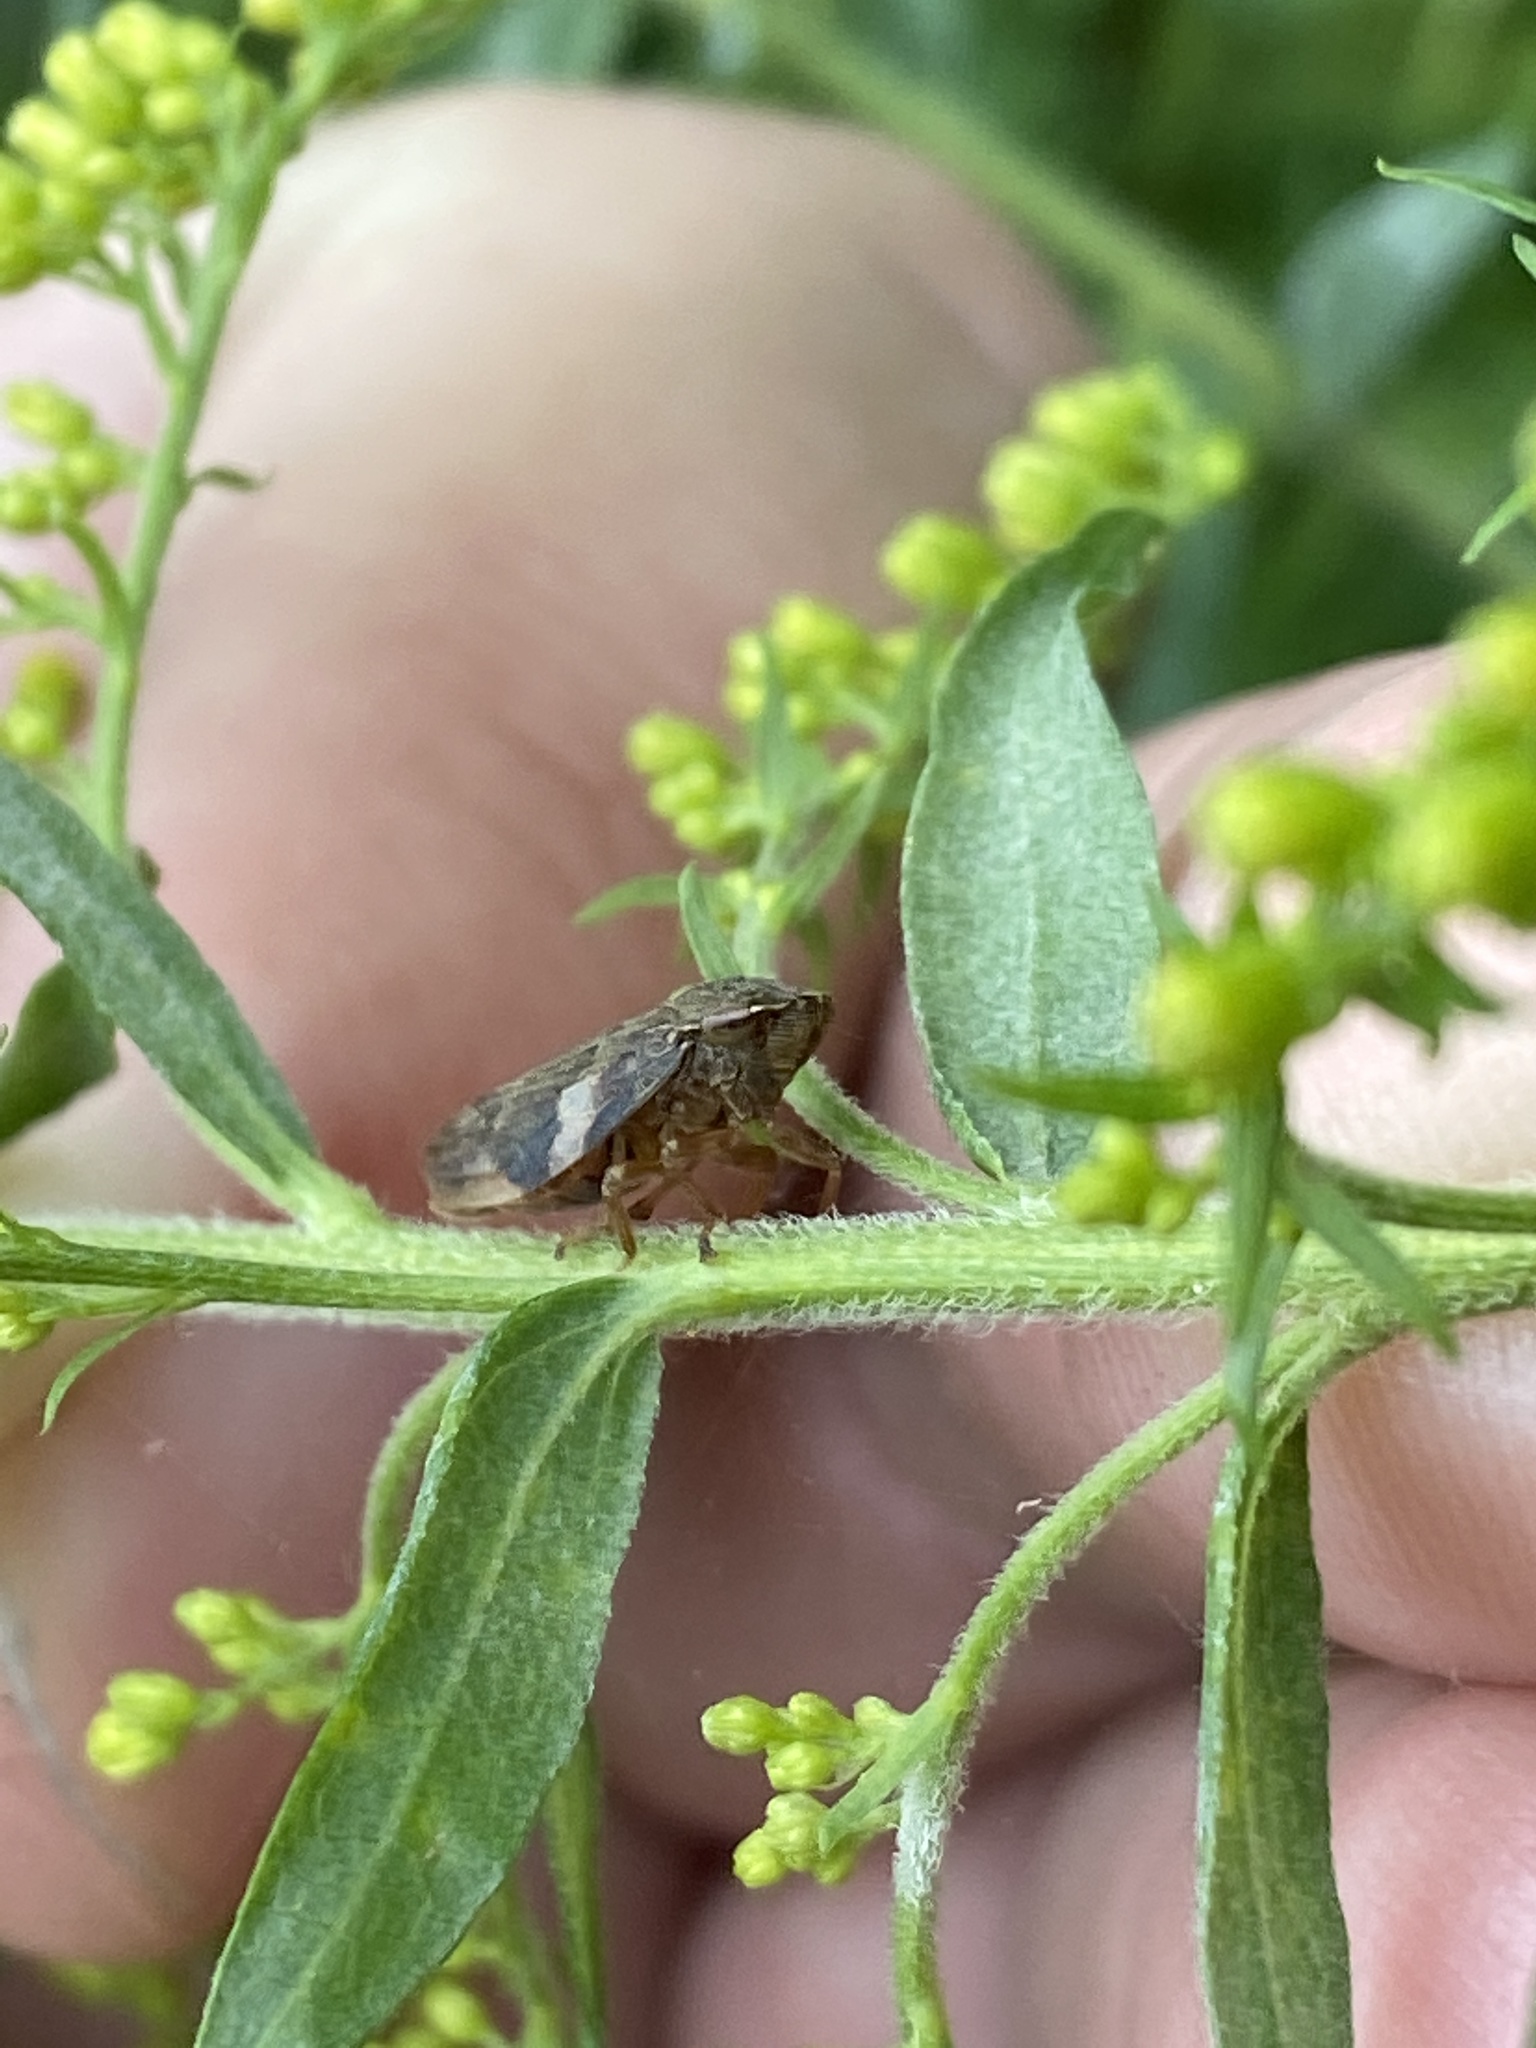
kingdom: Animalia
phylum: Arthropoda
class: Insecta
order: Hemiptera
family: Aphrophoridae
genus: Aphrophora
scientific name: Aphrophora alni
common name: European alder spittlebug
